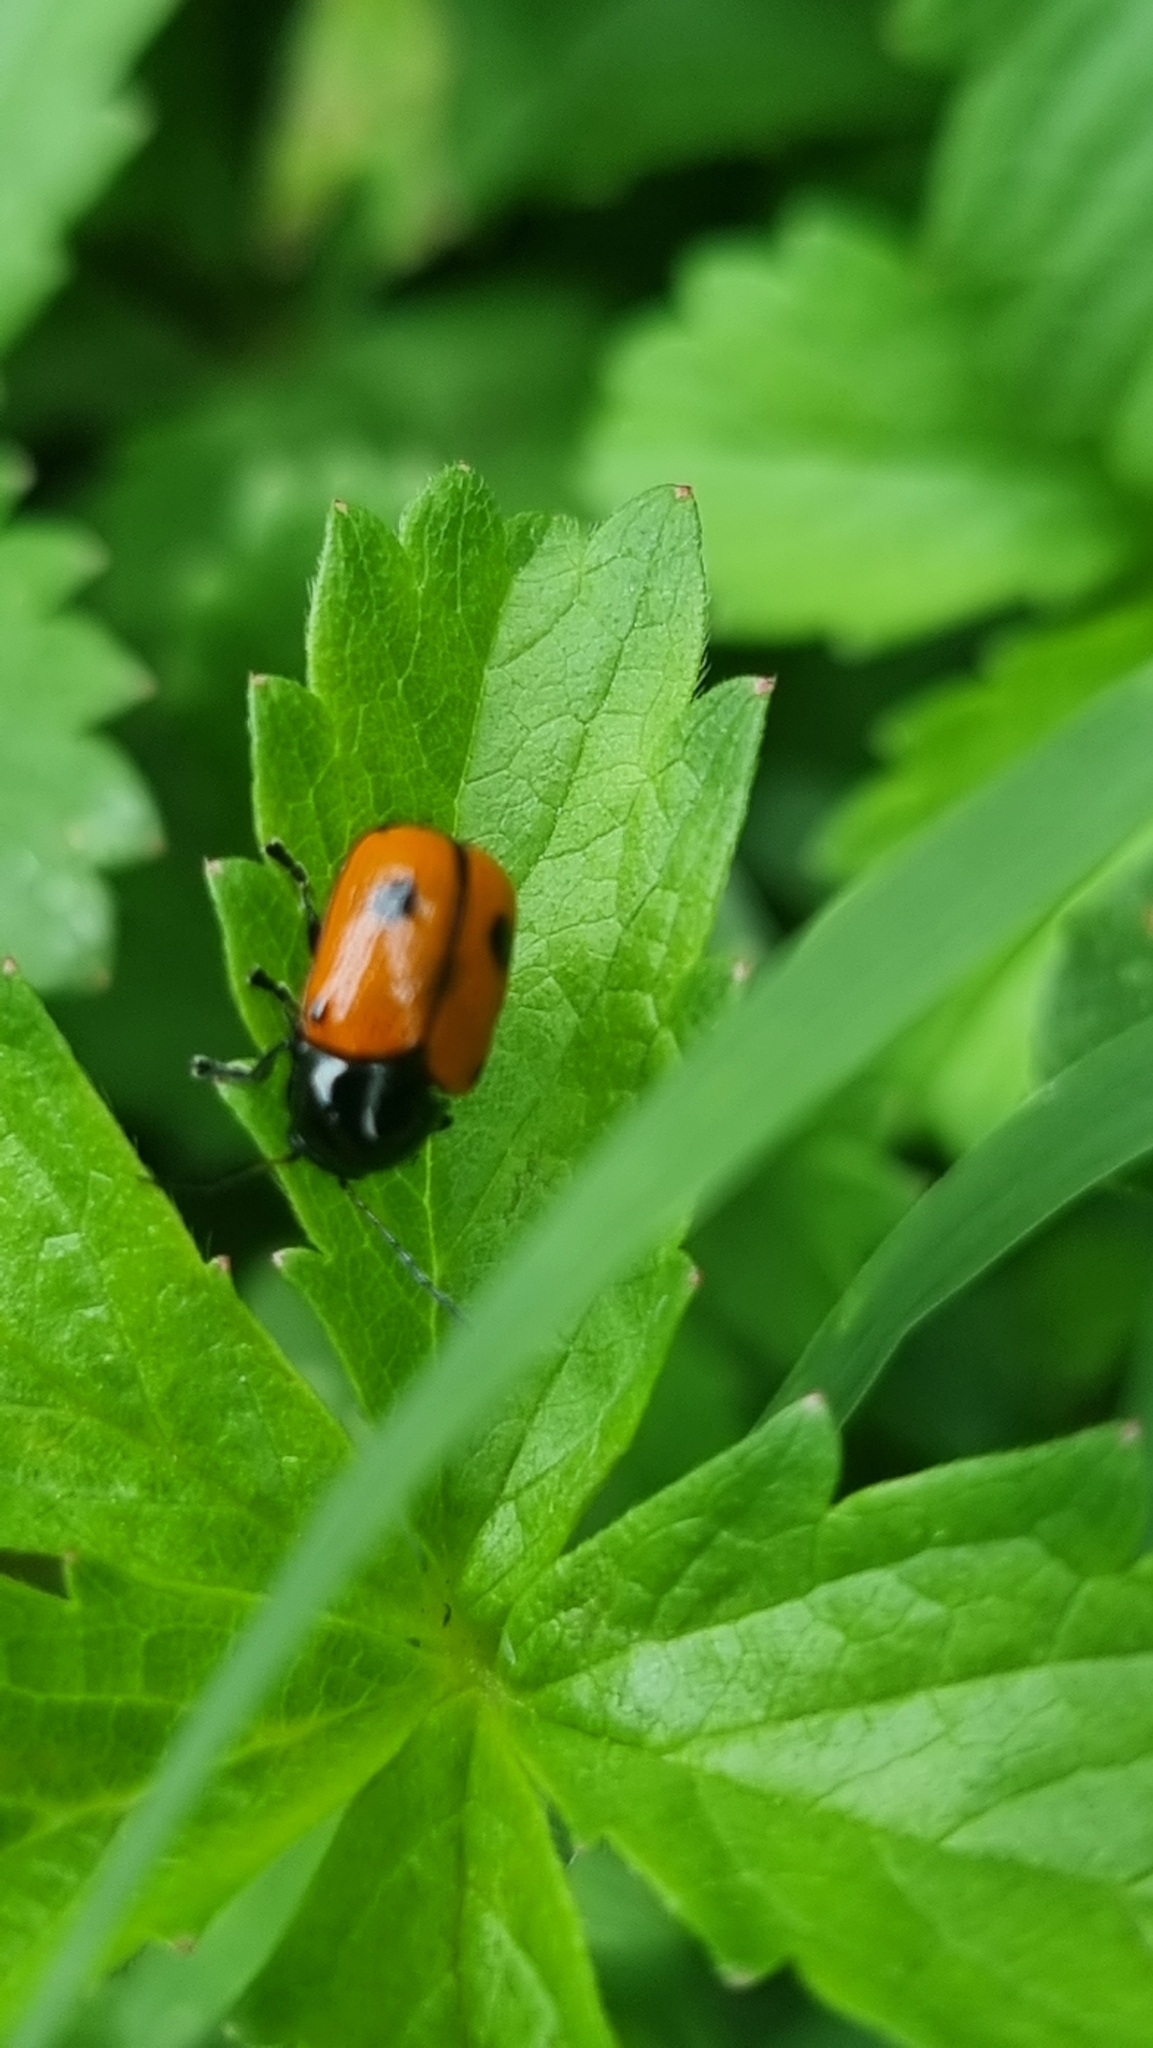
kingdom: Animalia
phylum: Arthropoda
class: Insecta
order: Coleoptera
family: Chrysomelidae
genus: Chiridopsis
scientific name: Chiridopsis bipunctata
